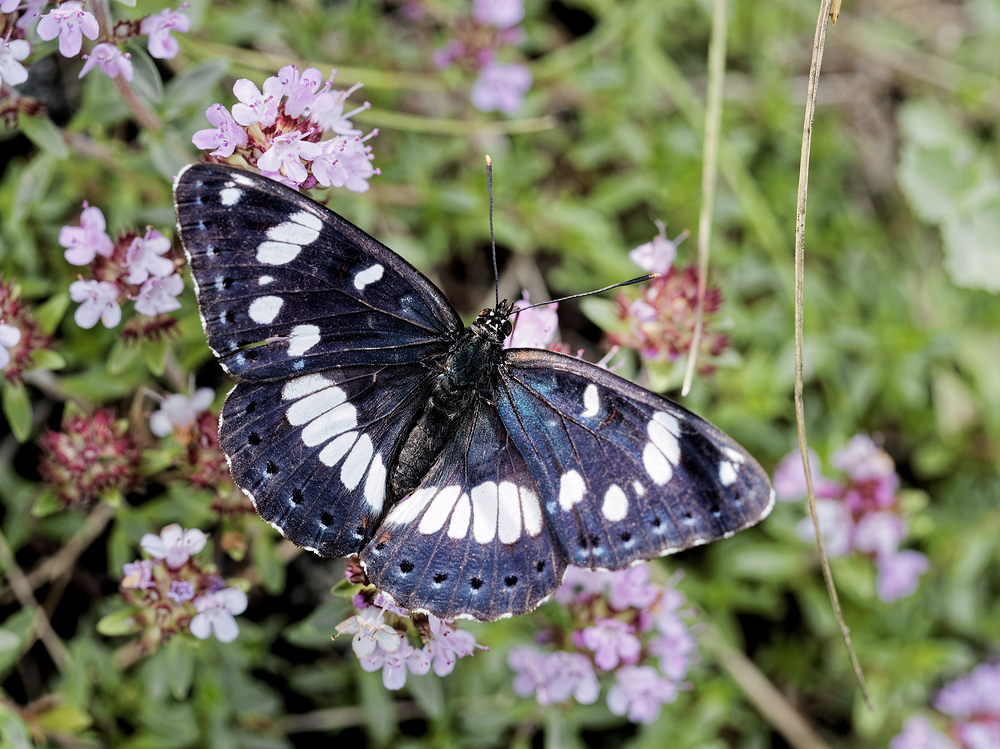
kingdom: Animalia
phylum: Arthropoda
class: Insecta
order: Lepidoptera
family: Nymphalidae
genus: Limenitis
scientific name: Limenitis reducta
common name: Southern white admiral
